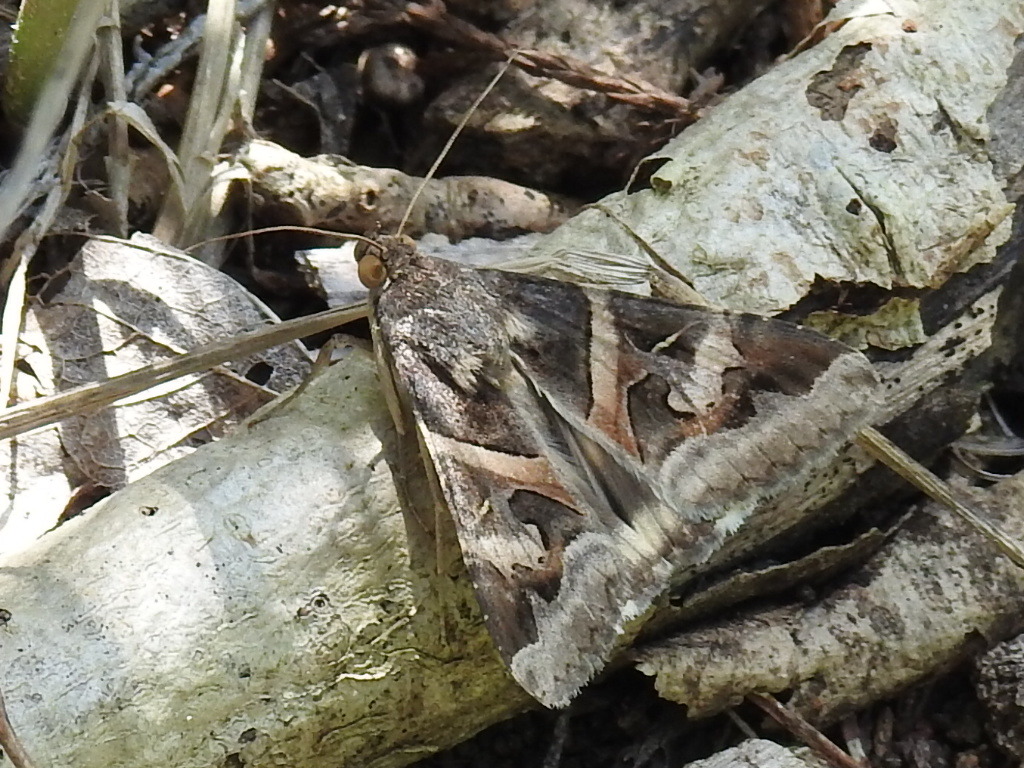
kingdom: Animalia
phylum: Arthropoda
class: Insecta
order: Lepidoptera
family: Erebidae
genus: Melipotis
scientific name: Melipotis indomita
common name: Moth
